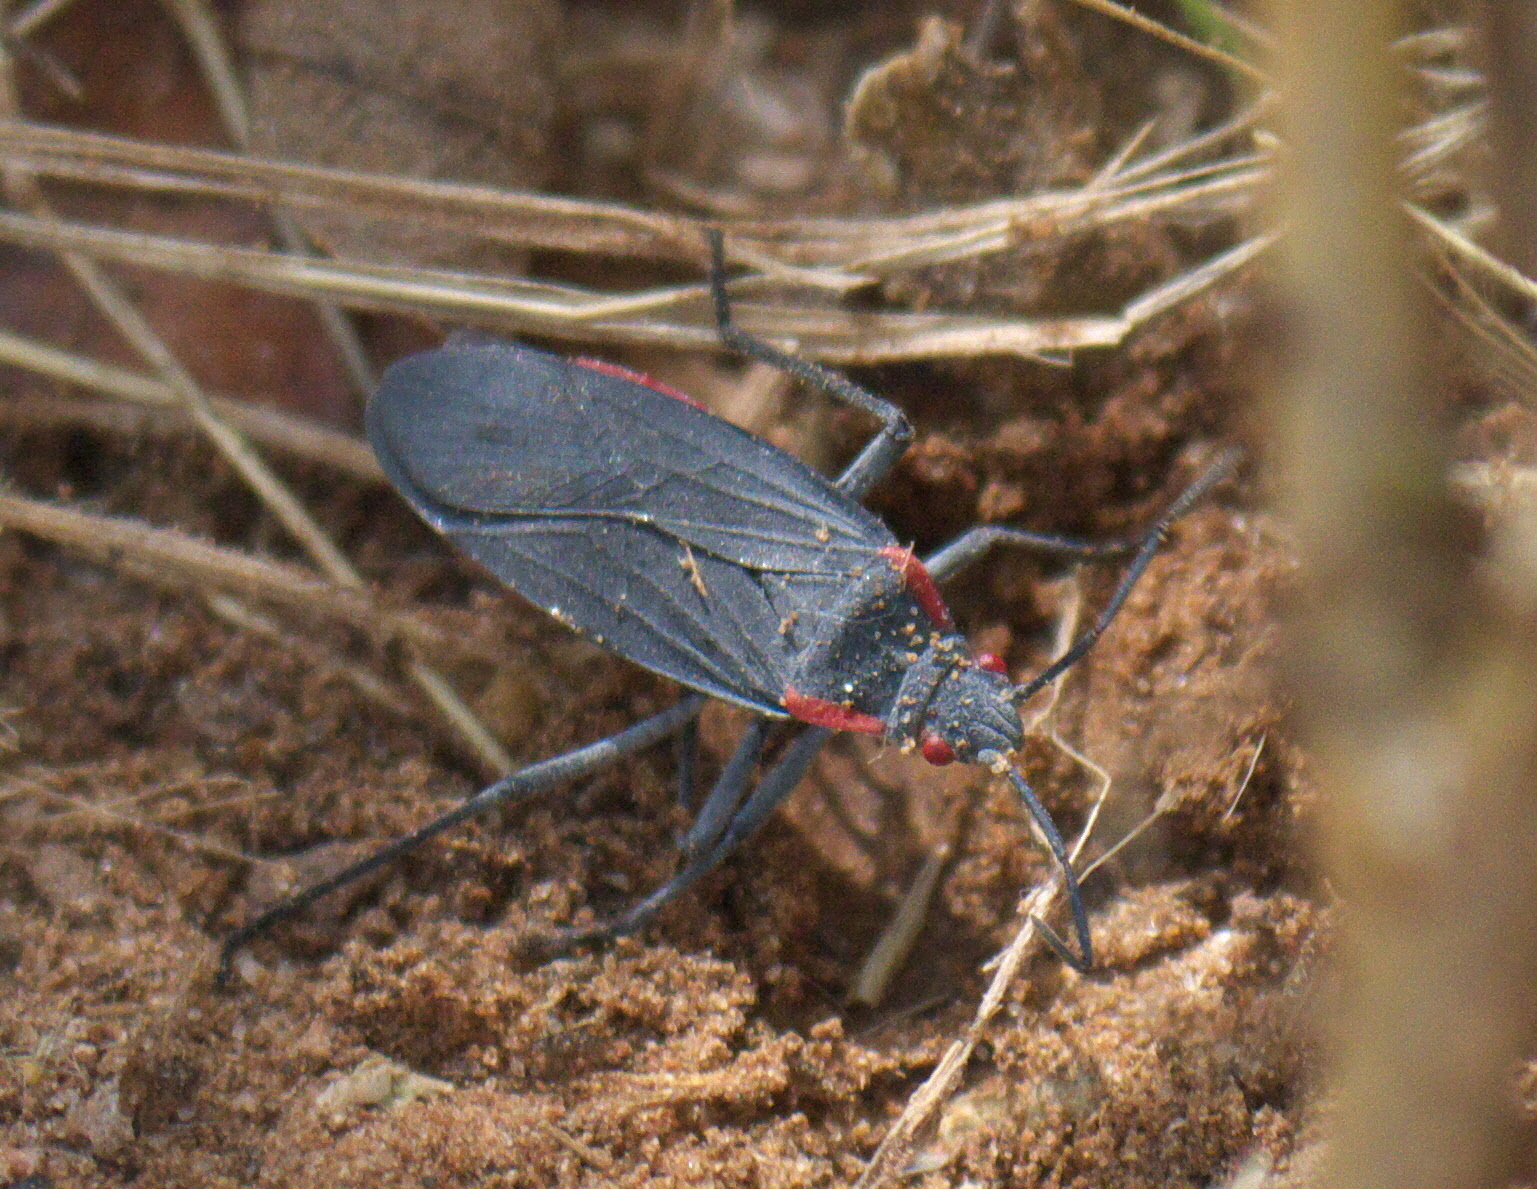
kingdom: Animalia
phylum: Arthropoda
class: Insecta
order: Hemiptera
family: Rhopalidae
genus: Jadera
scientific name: Jadera haematoloma
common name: Red-shouldered bug
